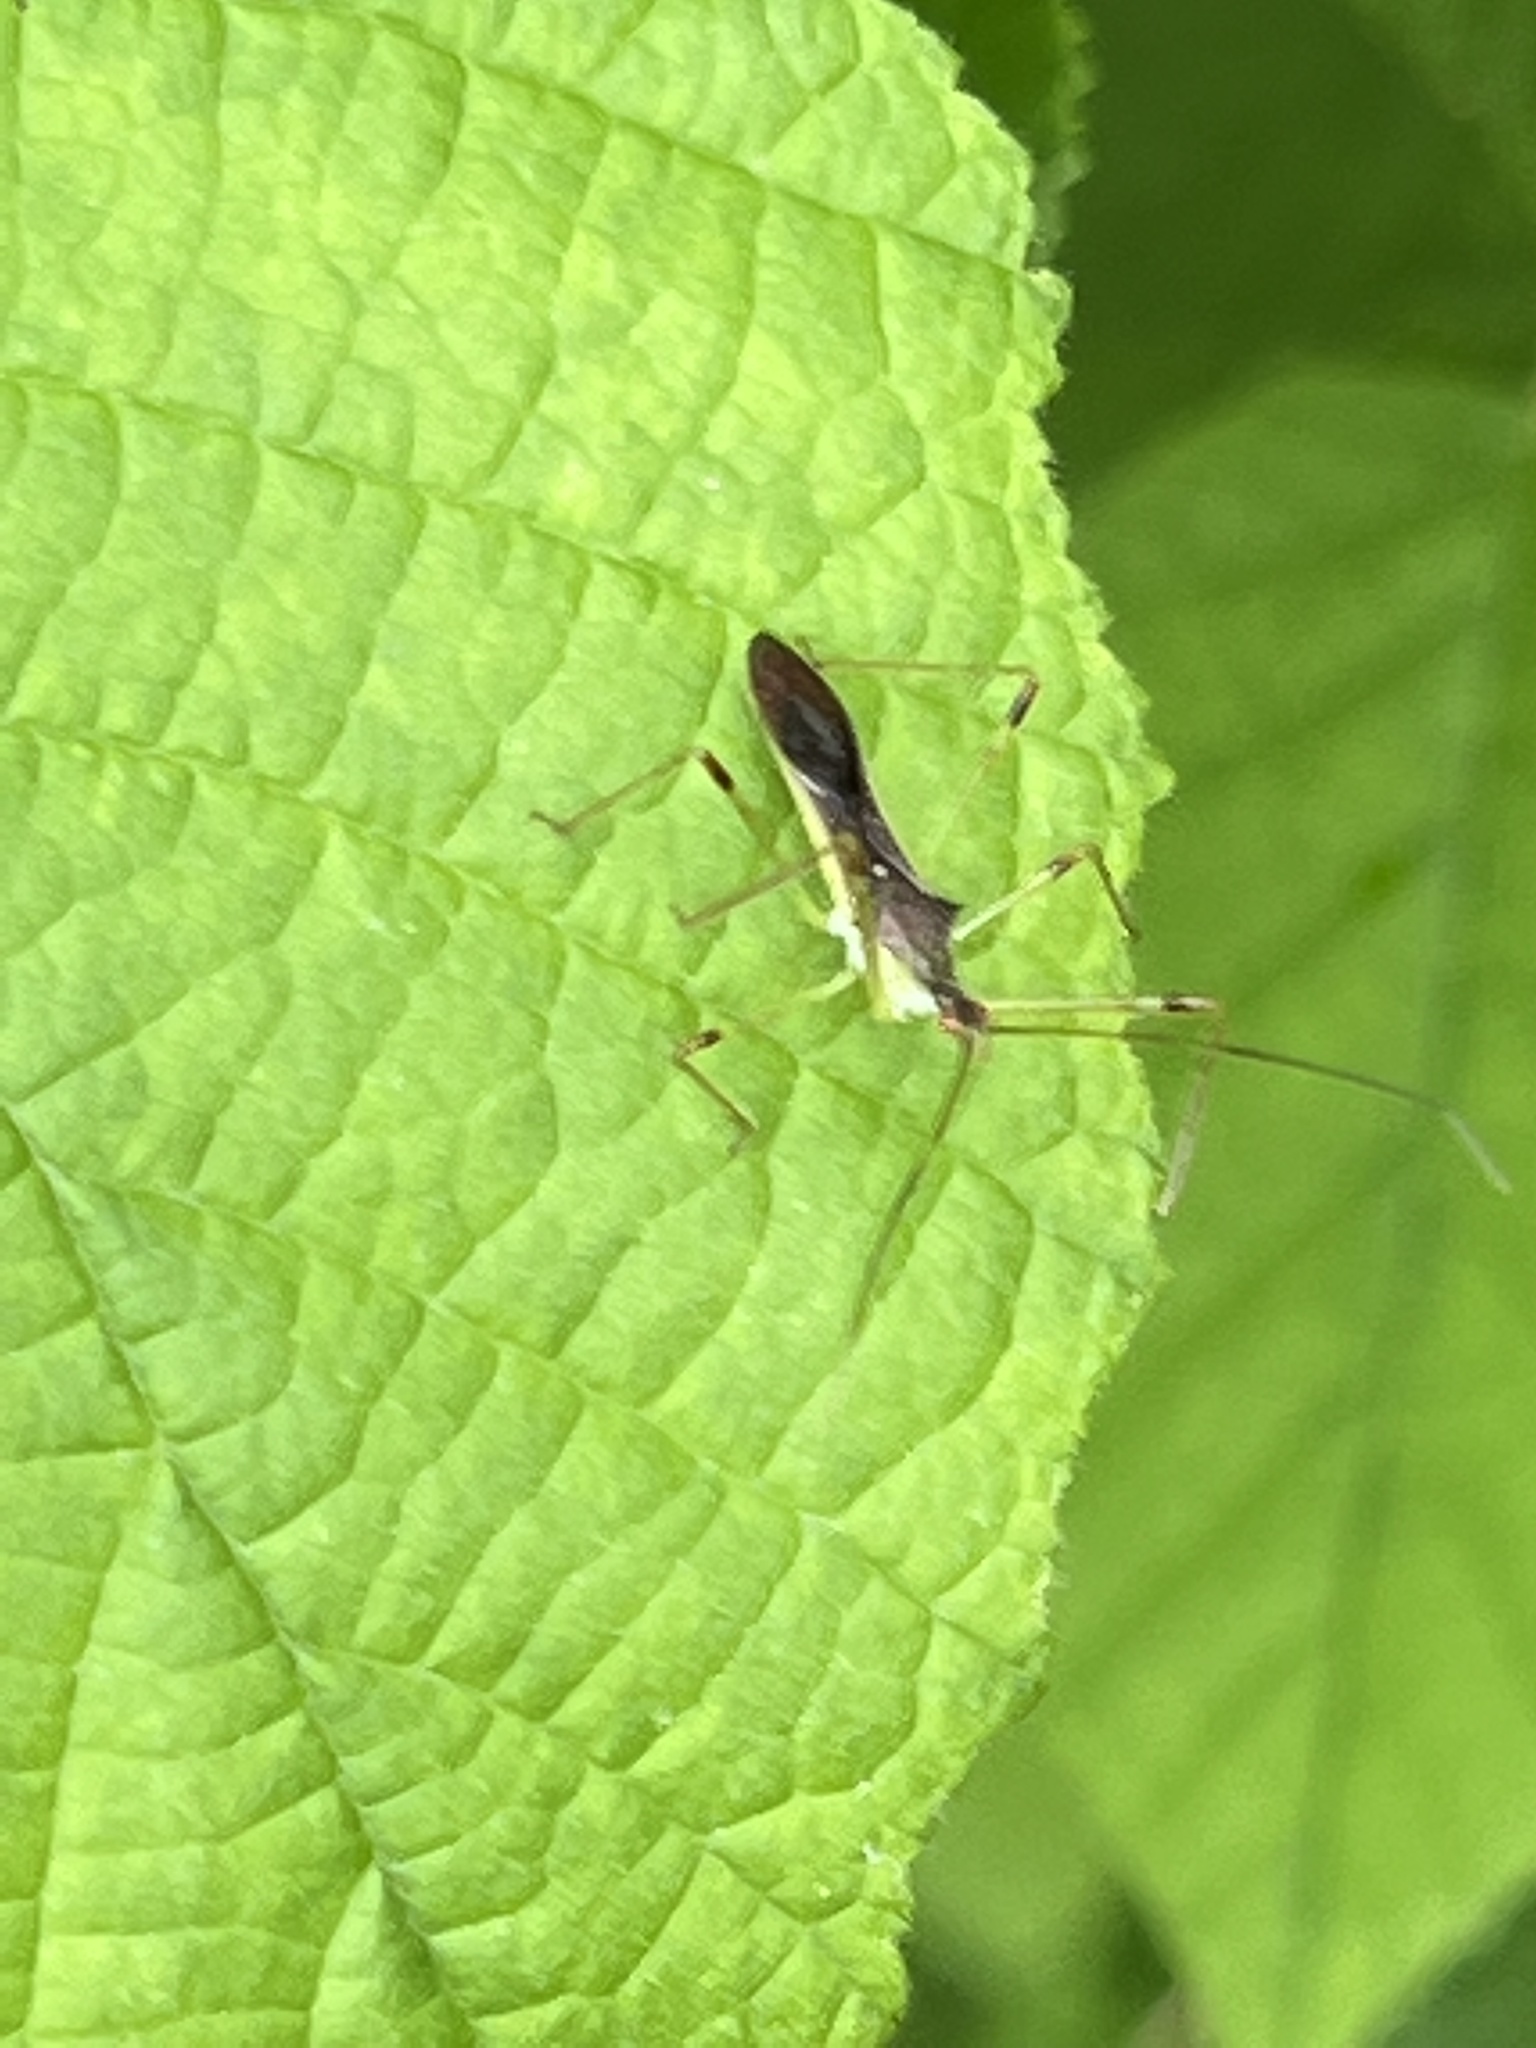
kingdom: Animalia
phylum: Arthropoda
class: Insecta
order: Hemiptera
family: Reduviidae
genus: Zelus
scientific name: Zelus luridus
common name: Pale green assassin bug
